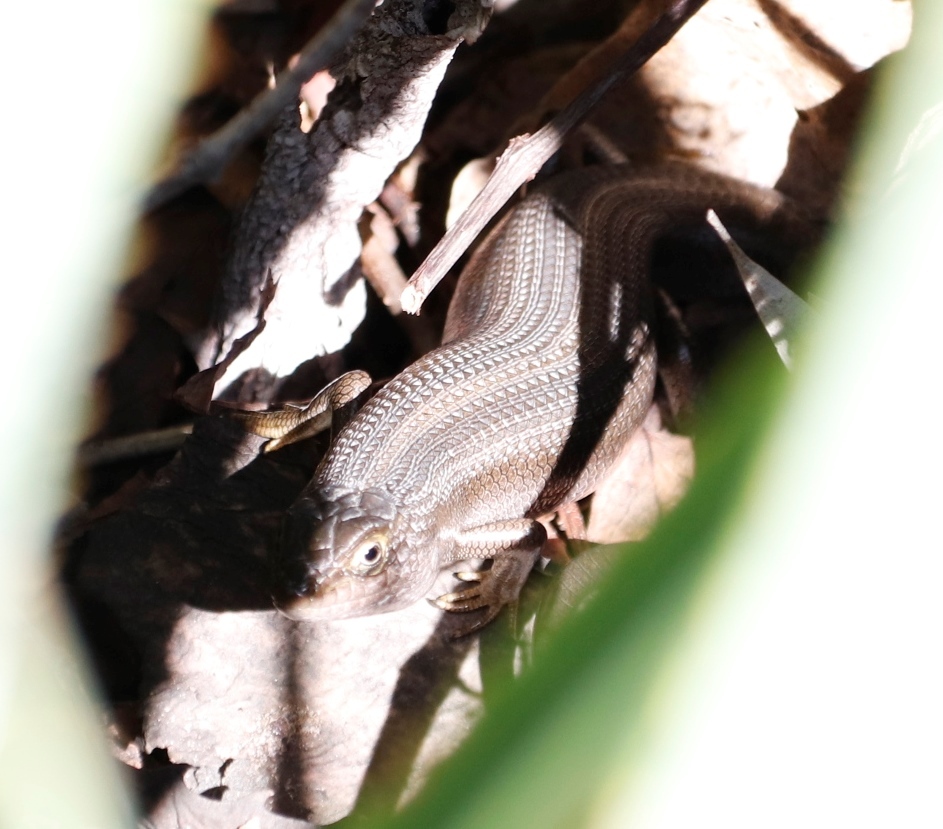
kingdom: Animalia
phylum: Chordata
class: Squamata
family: Scincidae
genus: Trachylepis
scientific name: Trachylepis capensis
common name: Cape skink
